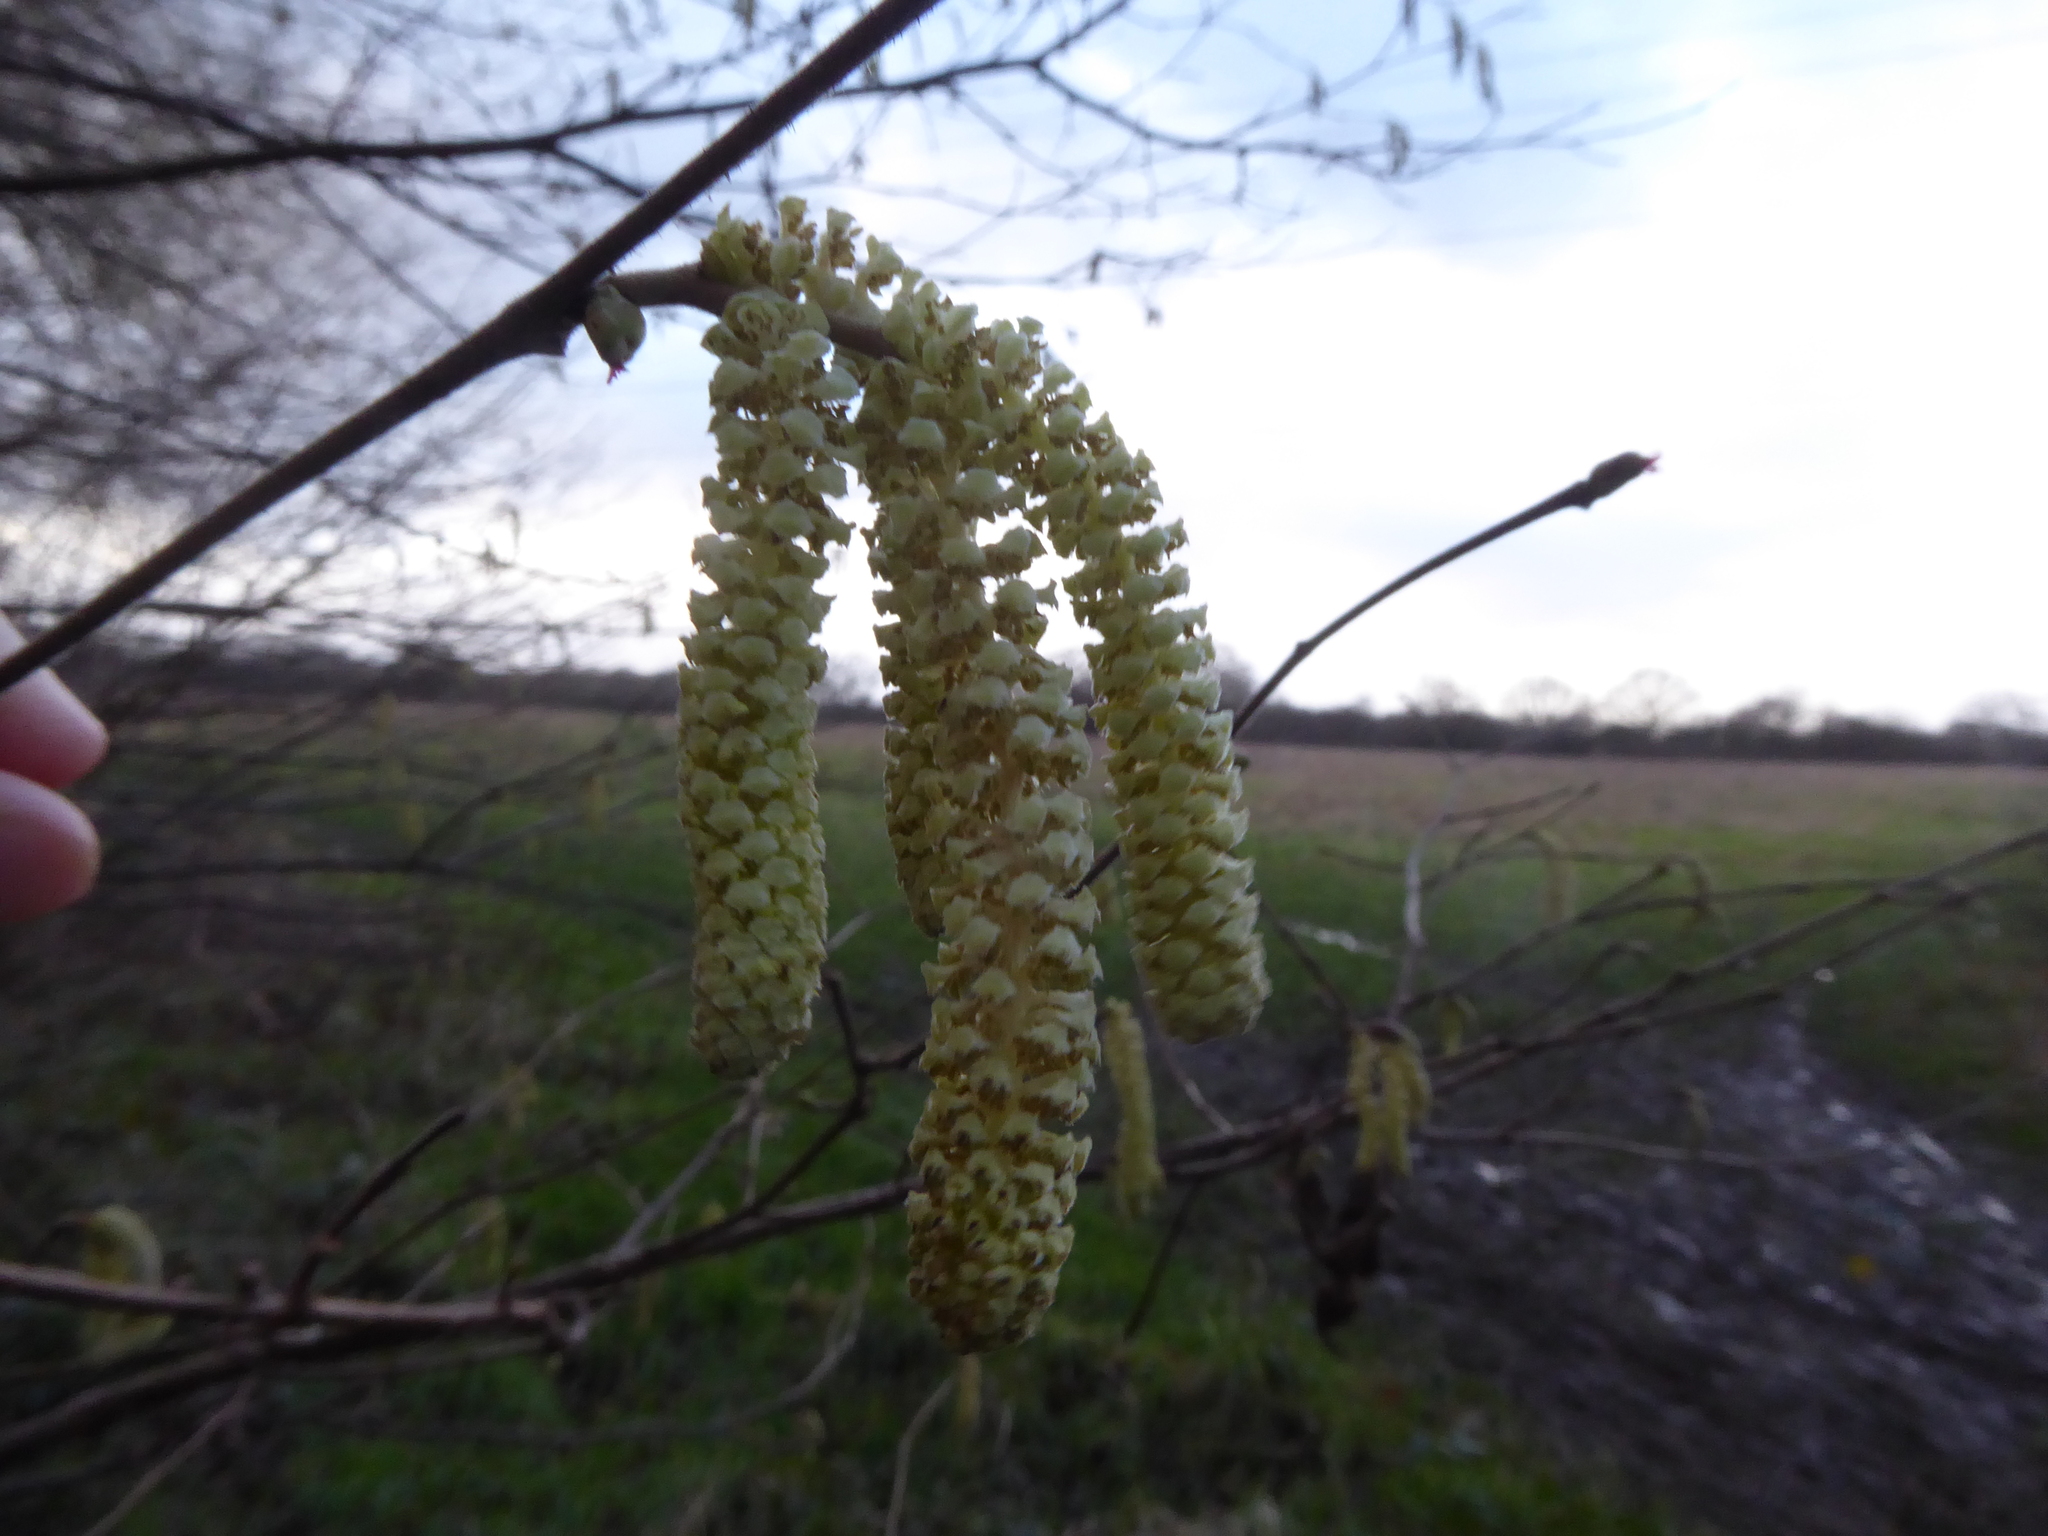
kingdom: Plantae
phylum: Tracheophyta
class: Magnoliopsida
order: Fagales
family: Betulaceae
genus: Corylus
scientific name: Corylus avellana
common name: European hazel
